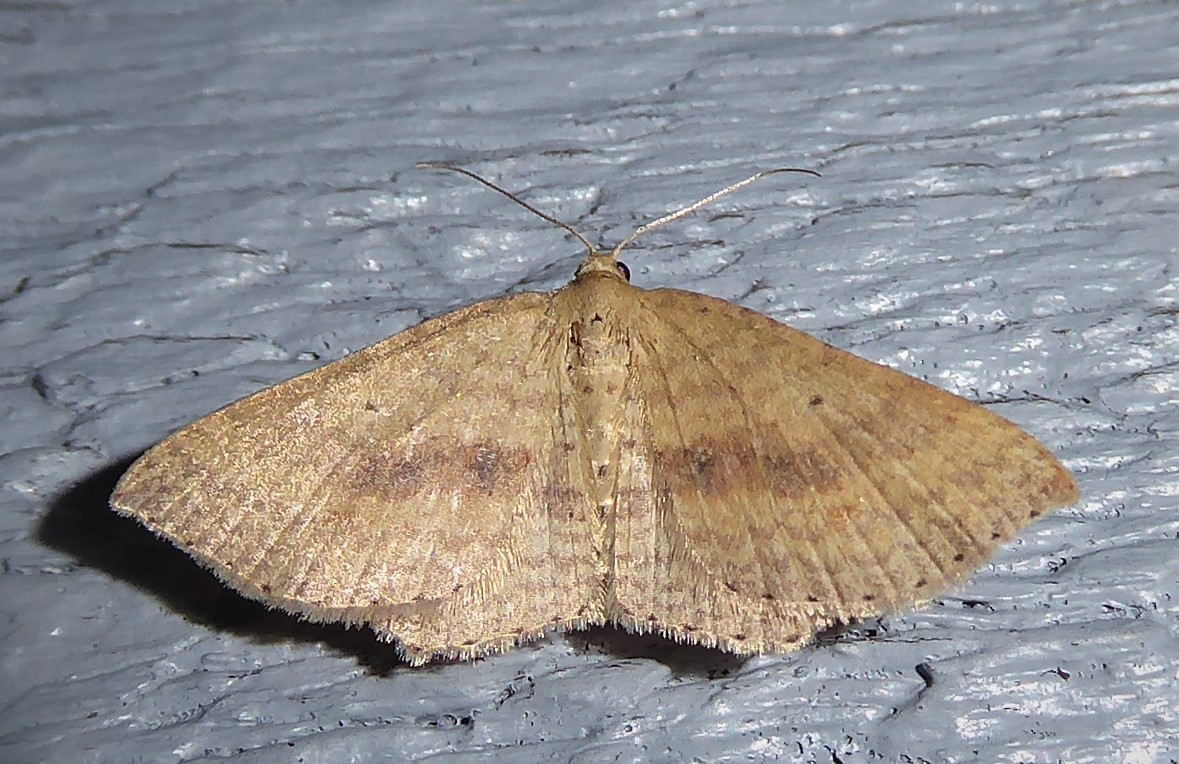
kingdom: Animalia
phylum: Arthropoda
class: Insecta
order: Lepidoptera
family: Geometridae
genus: Epicyme
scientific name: Epicyme rubropunctaria
